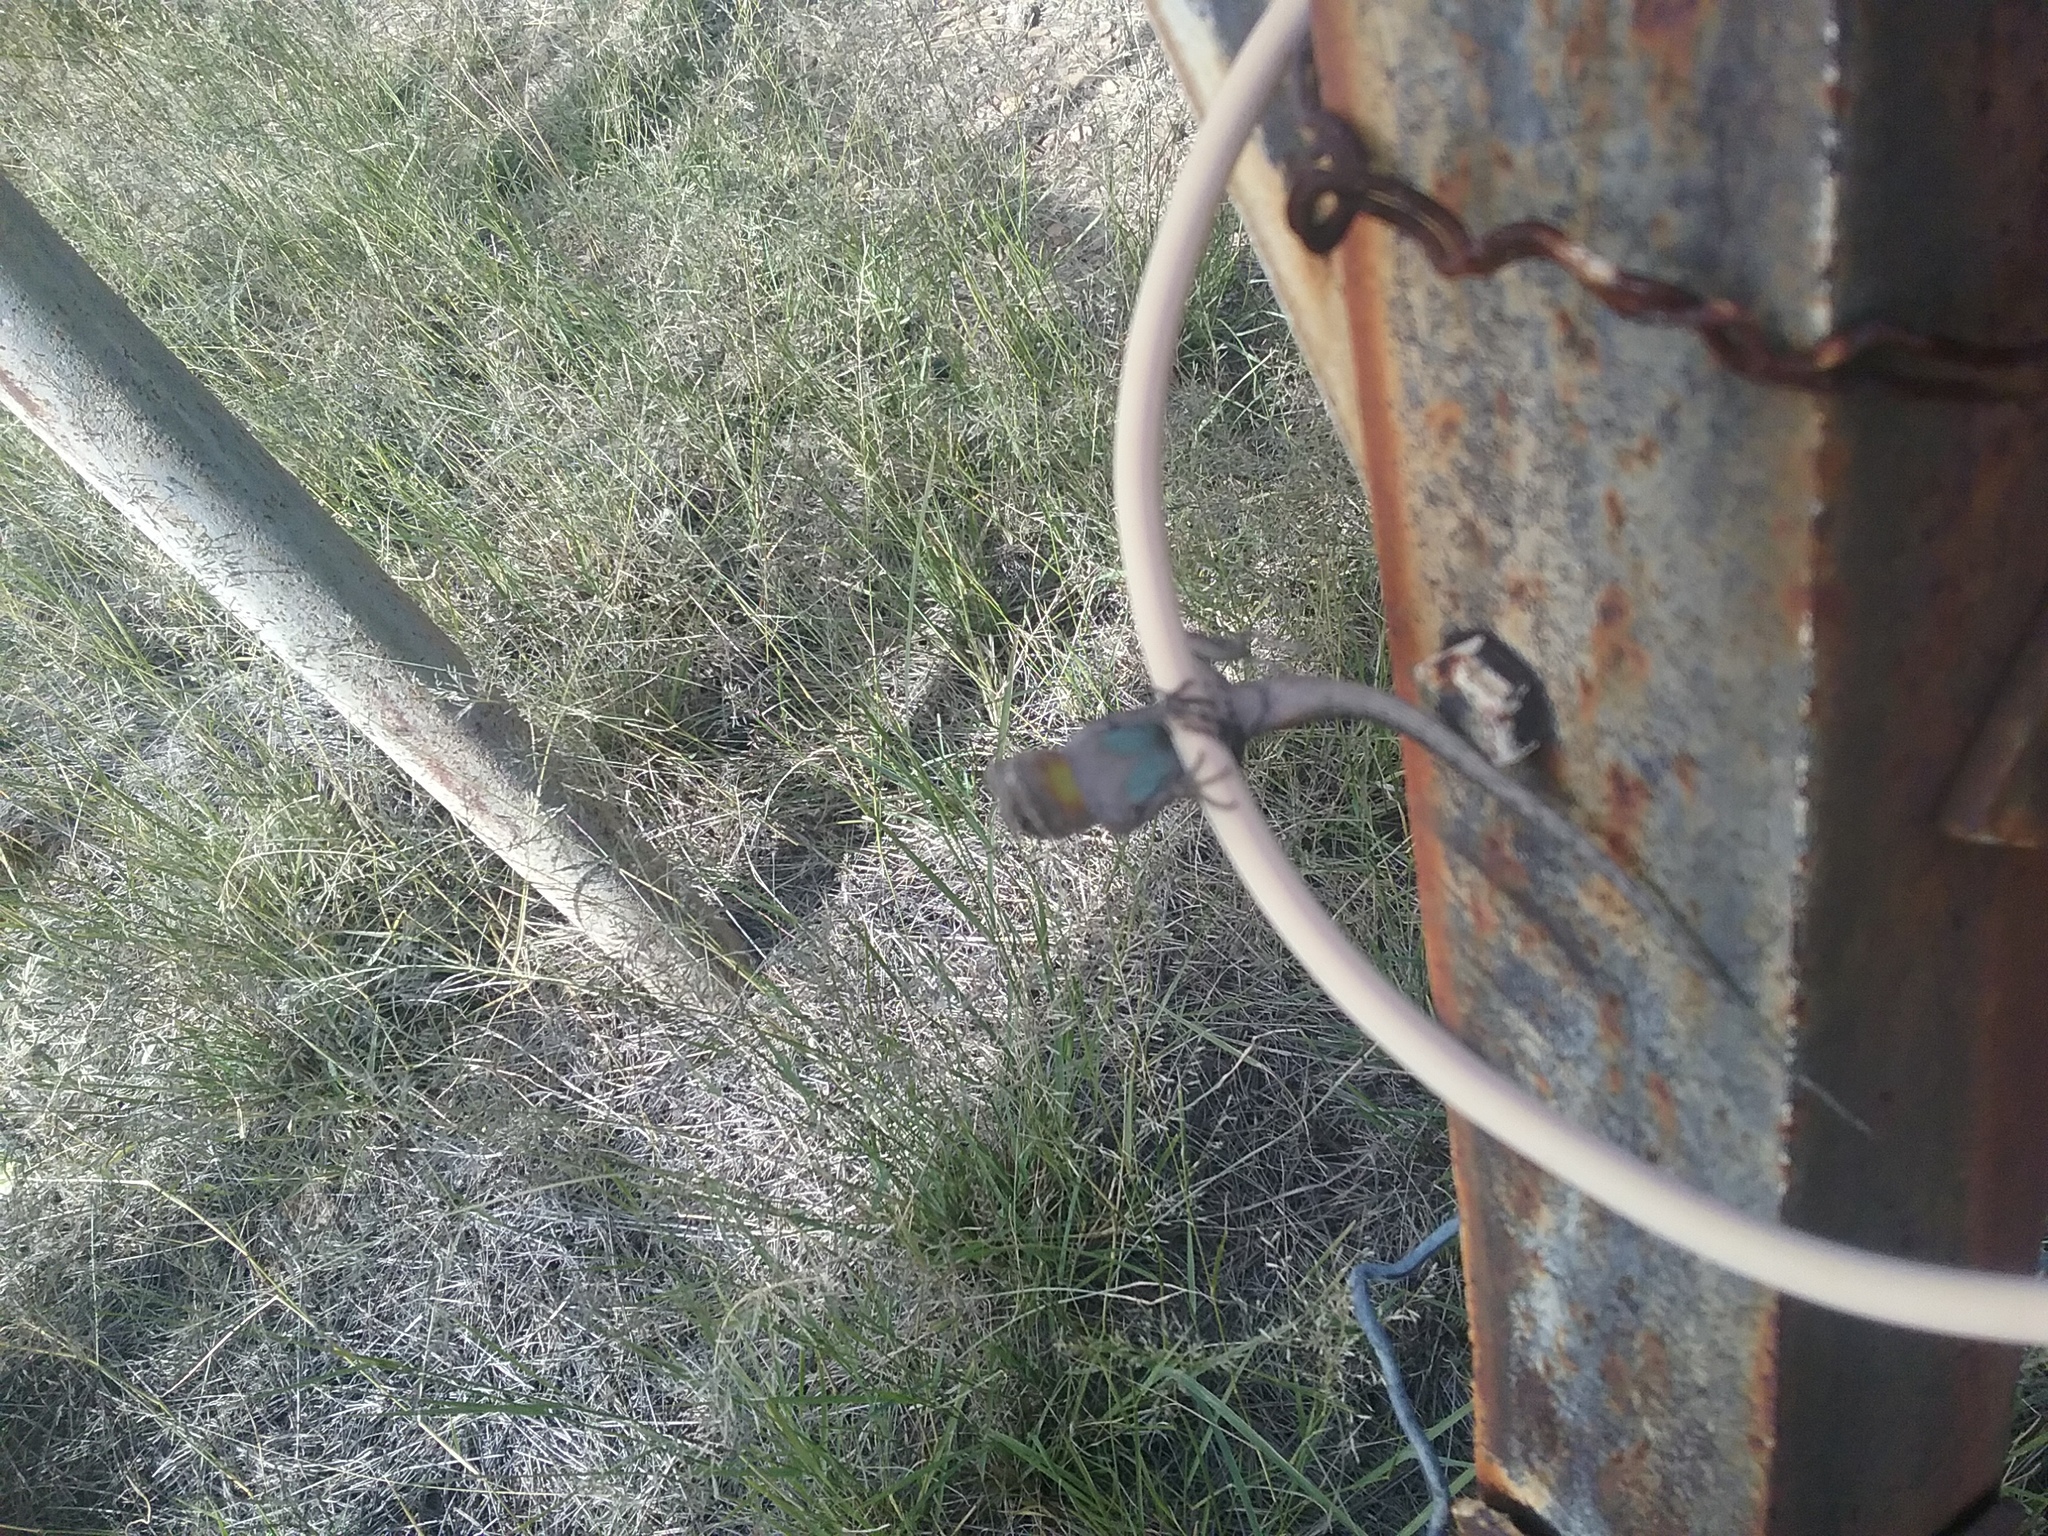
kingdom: Animalia
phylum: Chordata
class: Squamata
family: Phrynosomatidae
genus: Urosaurus
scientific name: Urosaurus ornatus
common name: Ornate tree lizard
